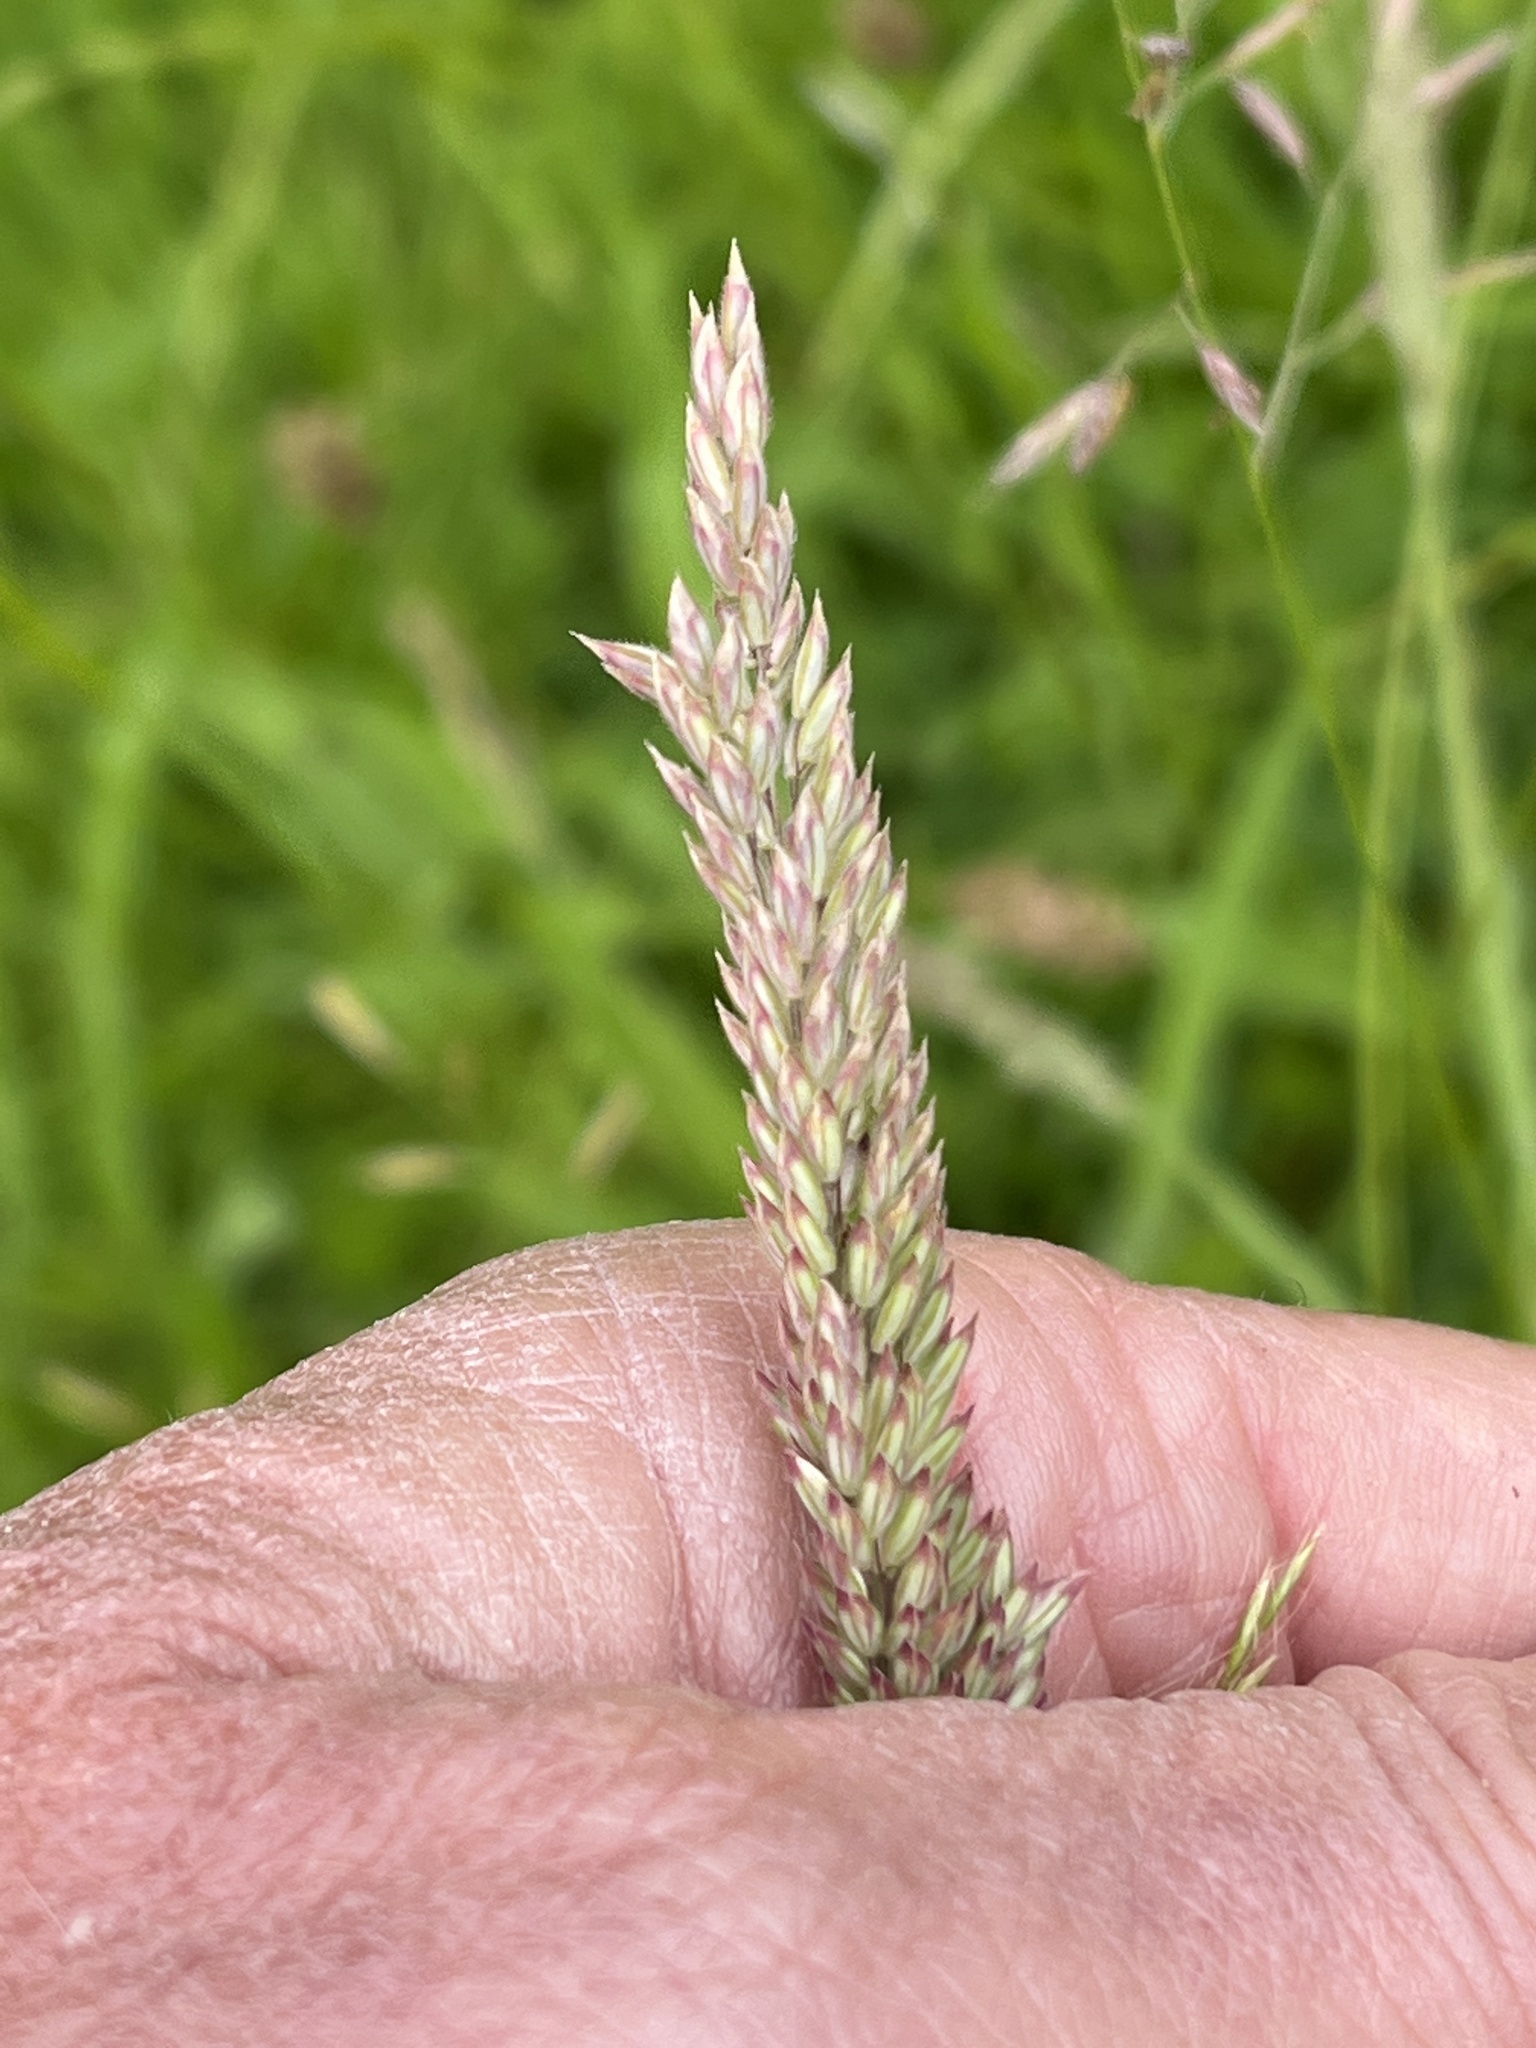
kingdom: Plantae
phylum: Tracheophyta
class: Liliopsida
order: Poales
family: Poaceae
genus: Holcus
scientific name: Holcus lanatus
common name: Yorkshire-fog
